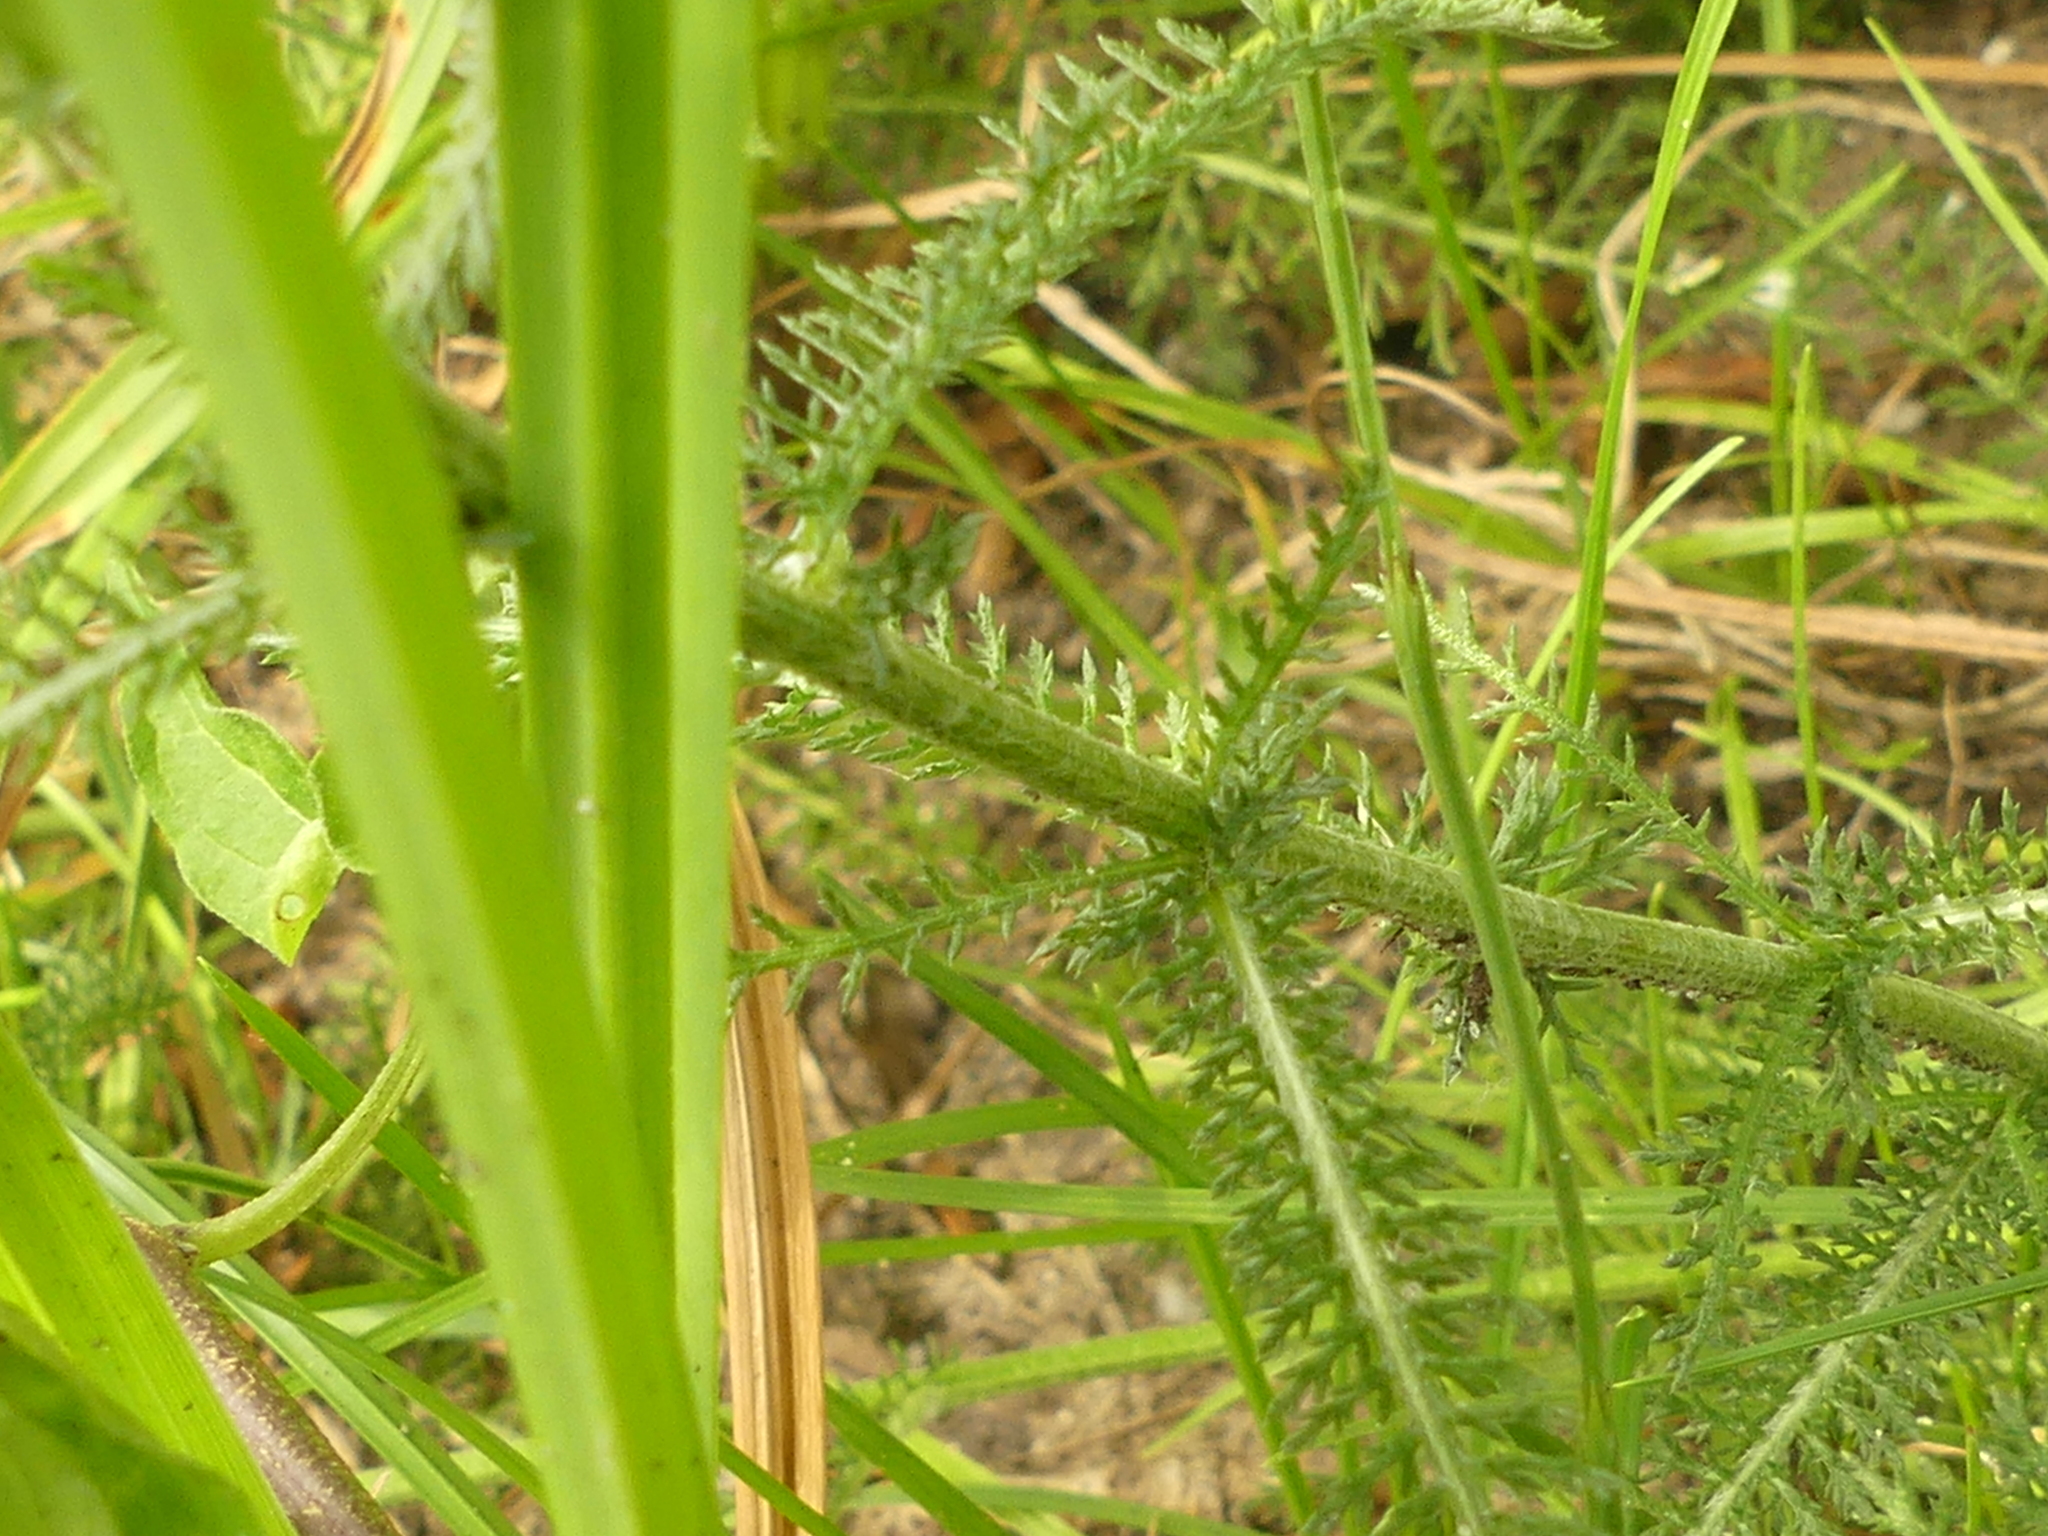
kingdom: Plantae
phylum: Tracheophyta
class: Magnoliopsida
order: Asterales
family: Asteraceae
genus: Achillea
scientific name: Achillea millefolium
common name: Yarrow
